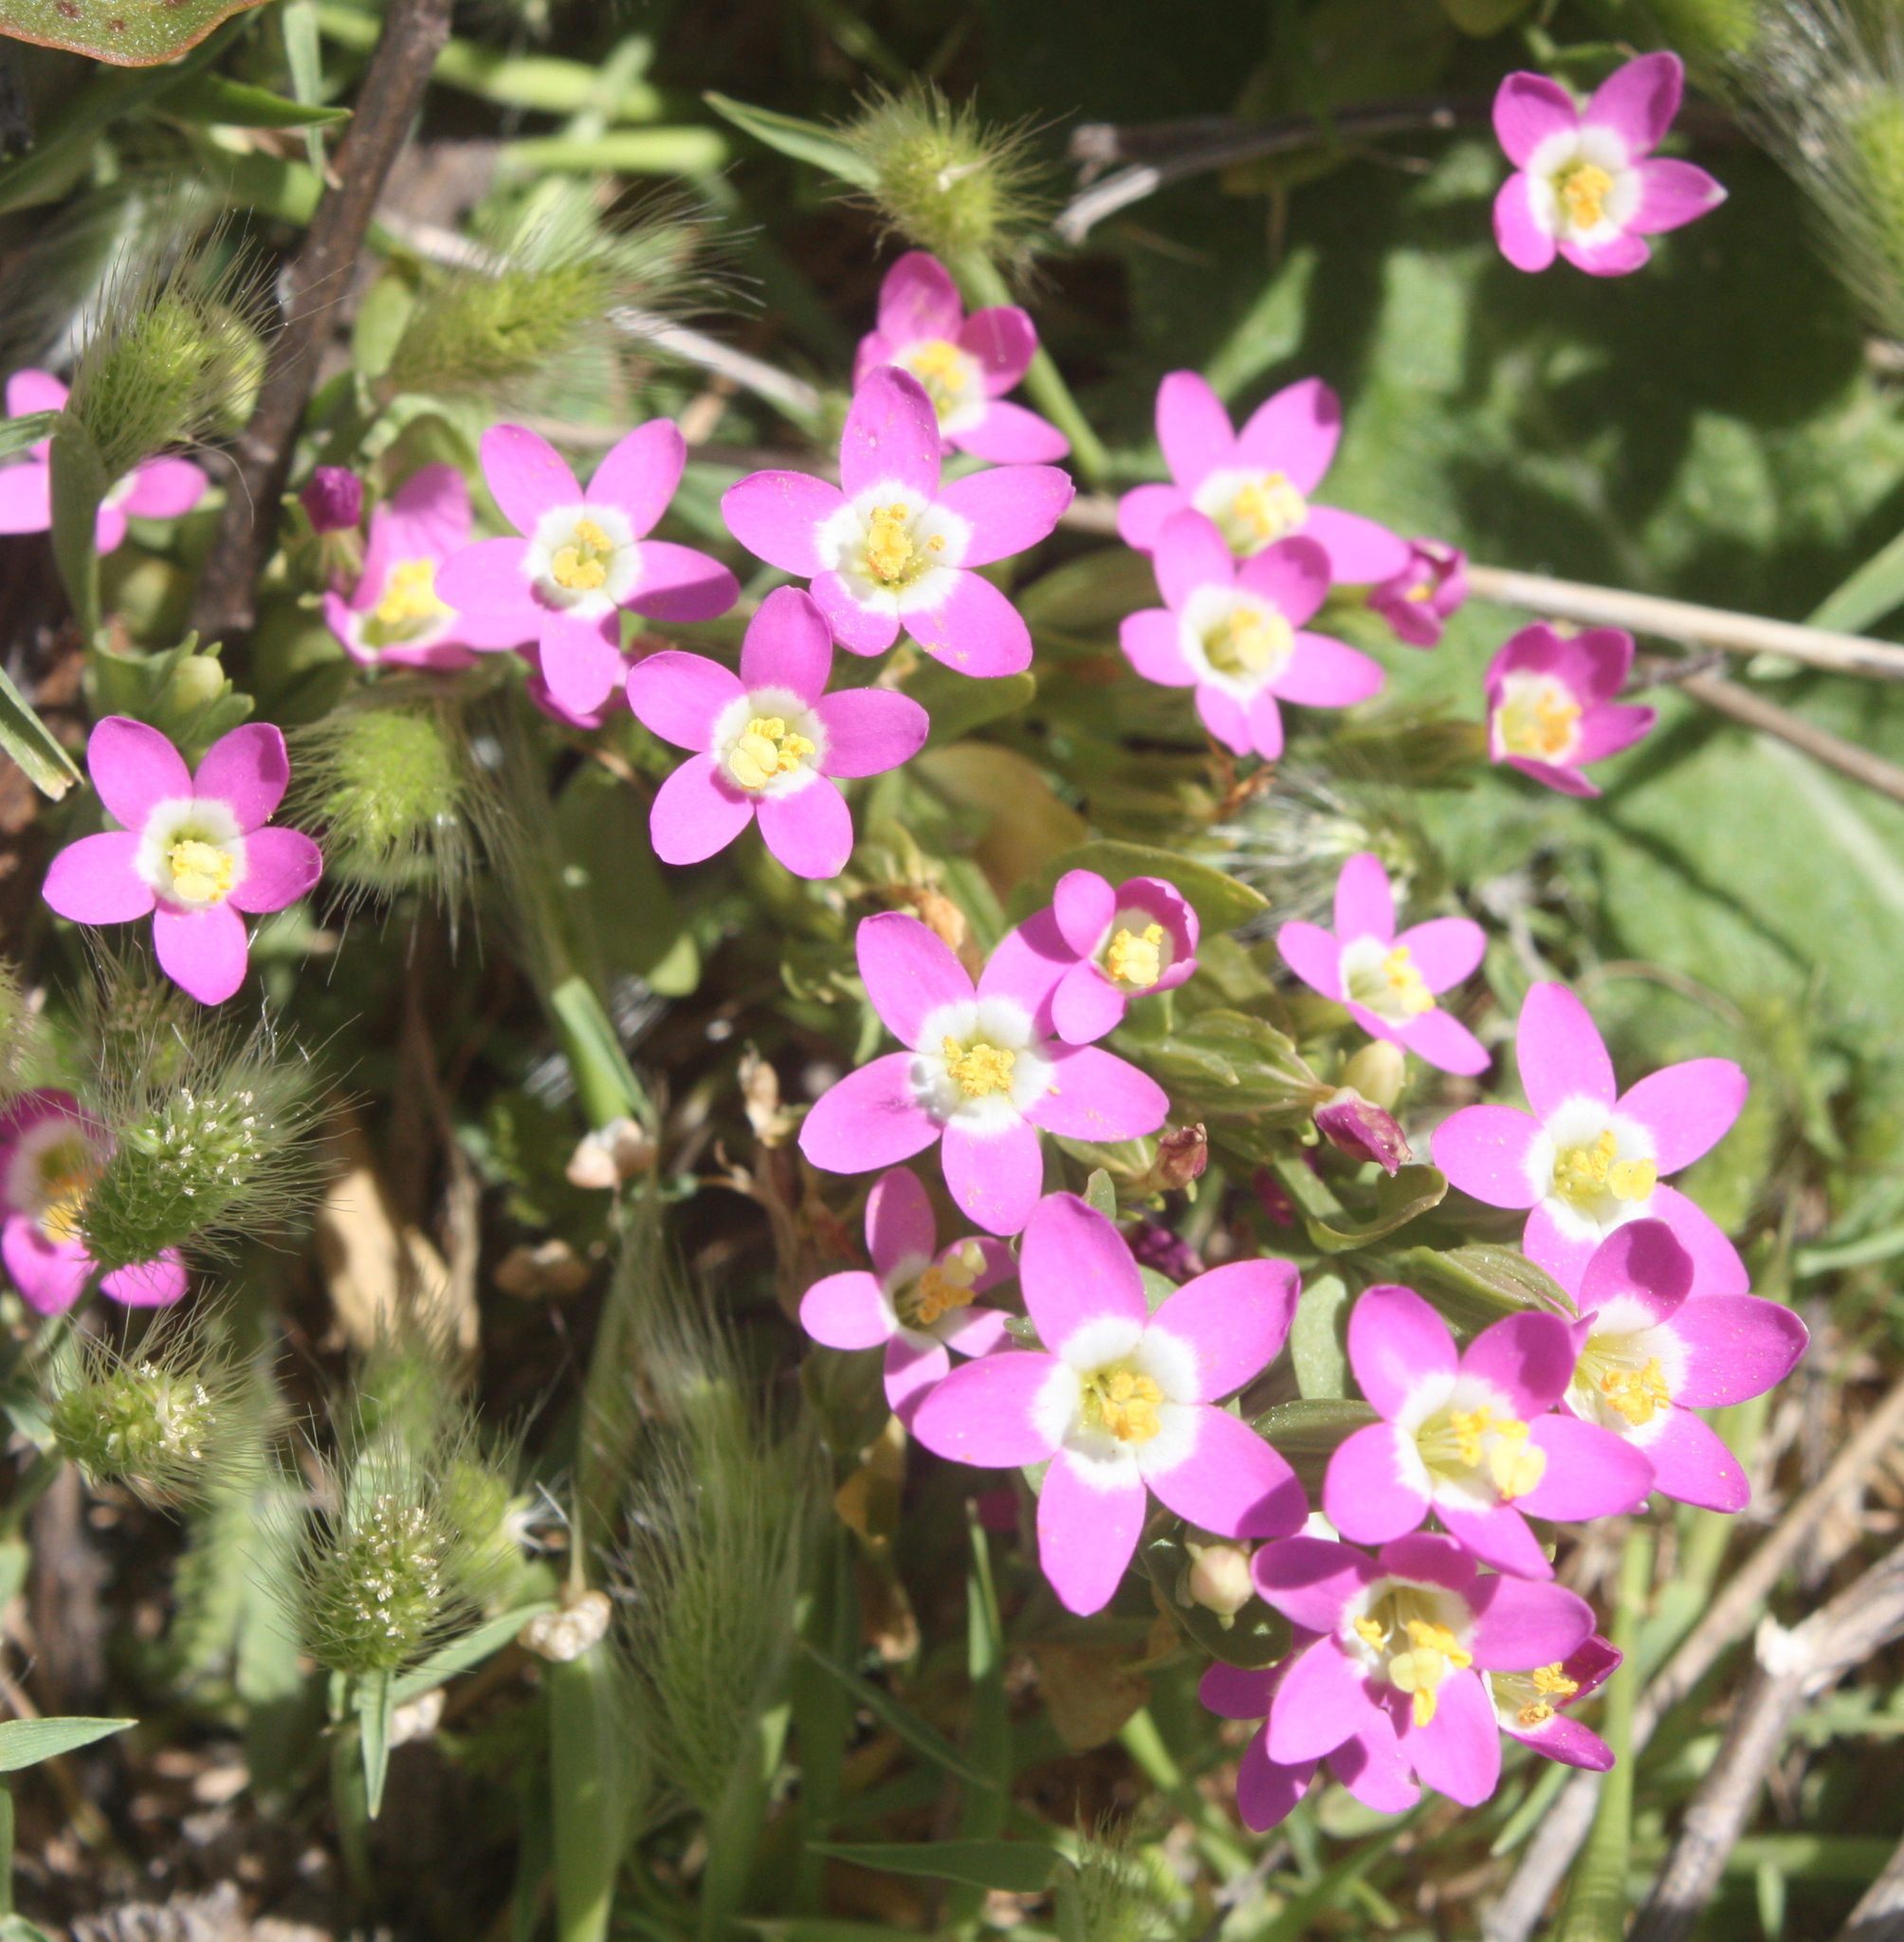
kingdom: Plantae
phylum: Tracheophyta
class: Magnoliopsida
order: Gentianales
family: Gentianaceae
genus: Zeltnera
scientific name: Zeltnera davyi
